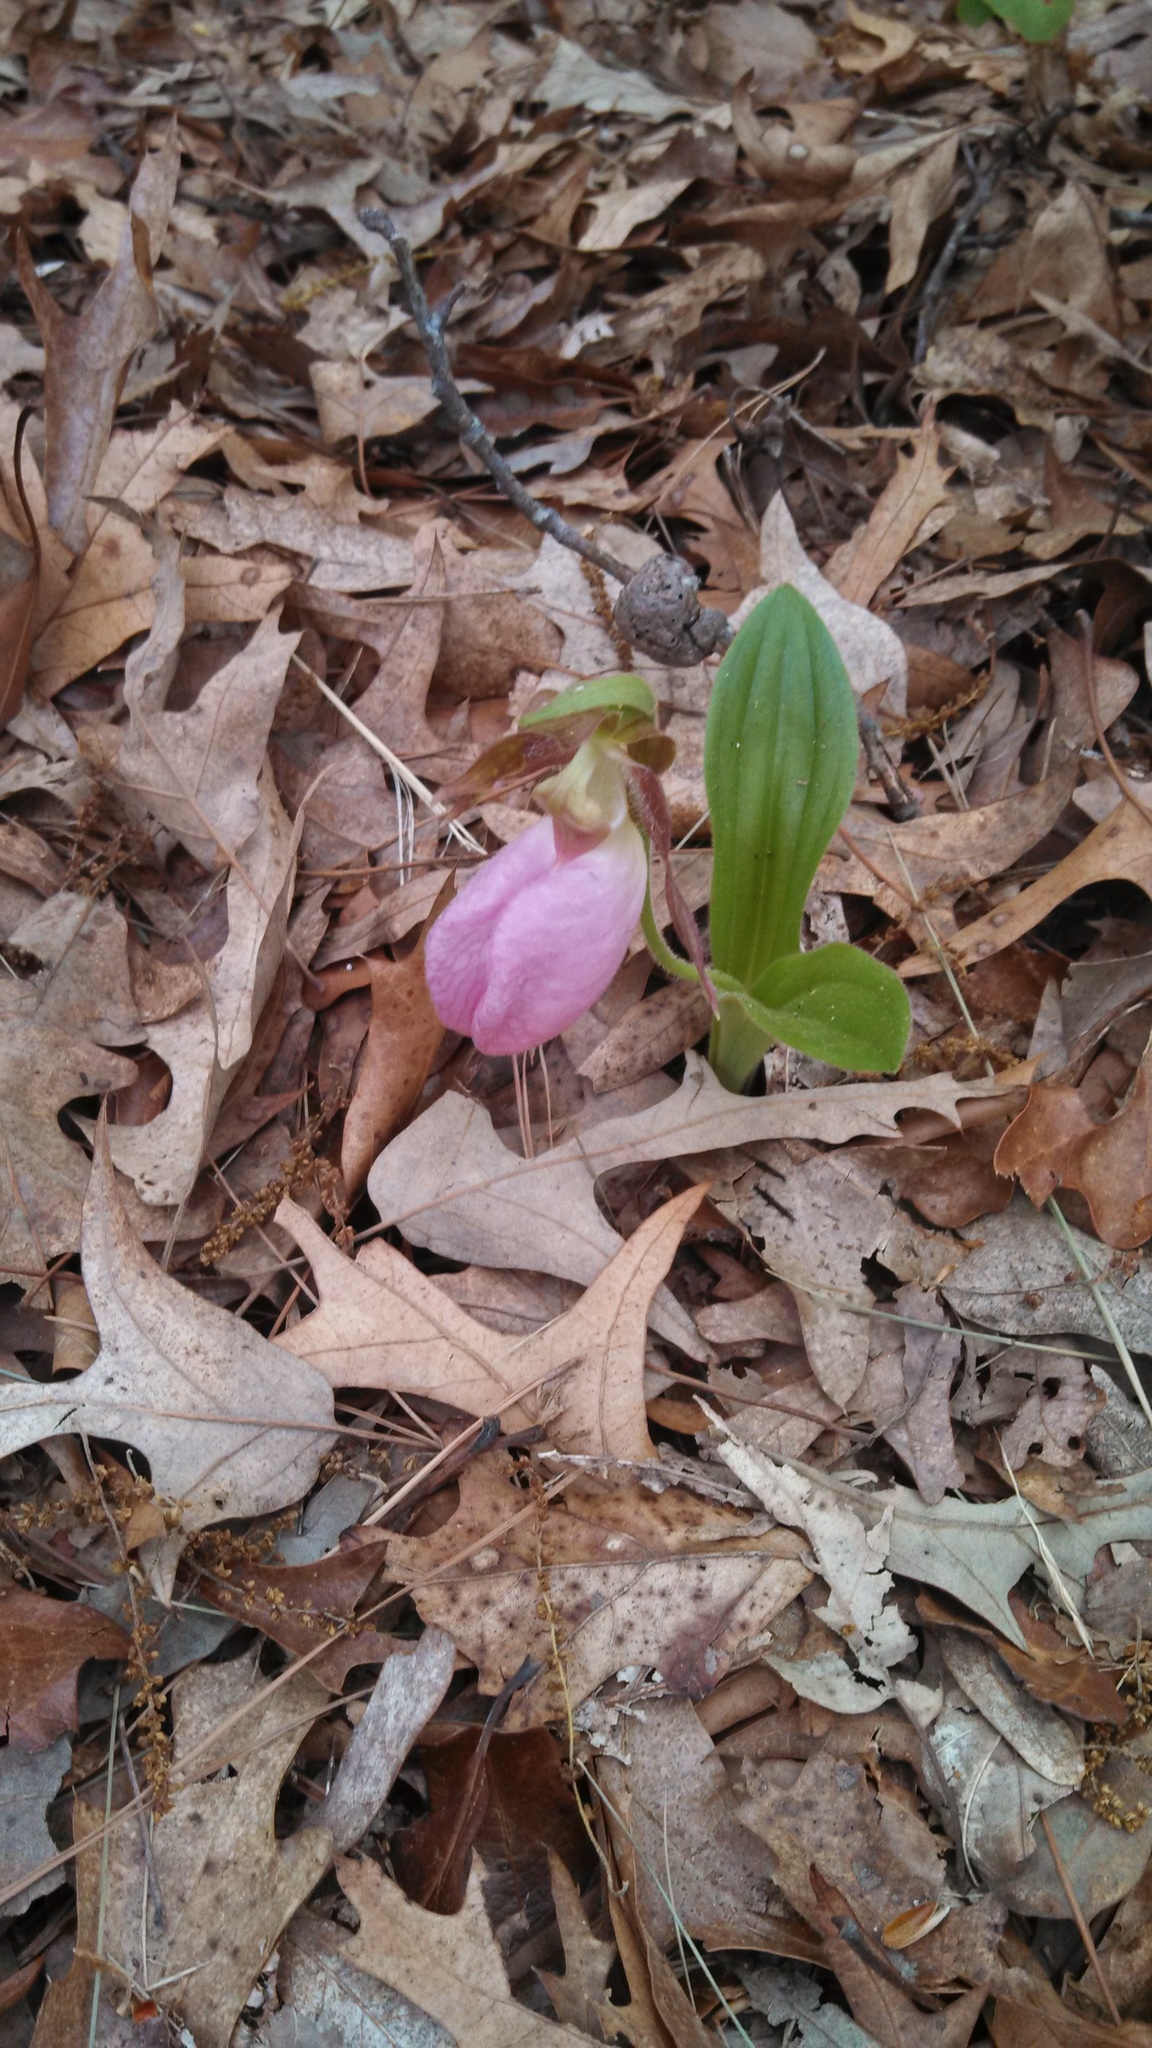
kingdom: Plantae
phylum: Tracheophyta
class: Liliopsida
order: Asparagales
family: Orchidaceae
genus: Cypripedium
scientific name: Cypripedium acaule
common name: Pink lady's-slipper
